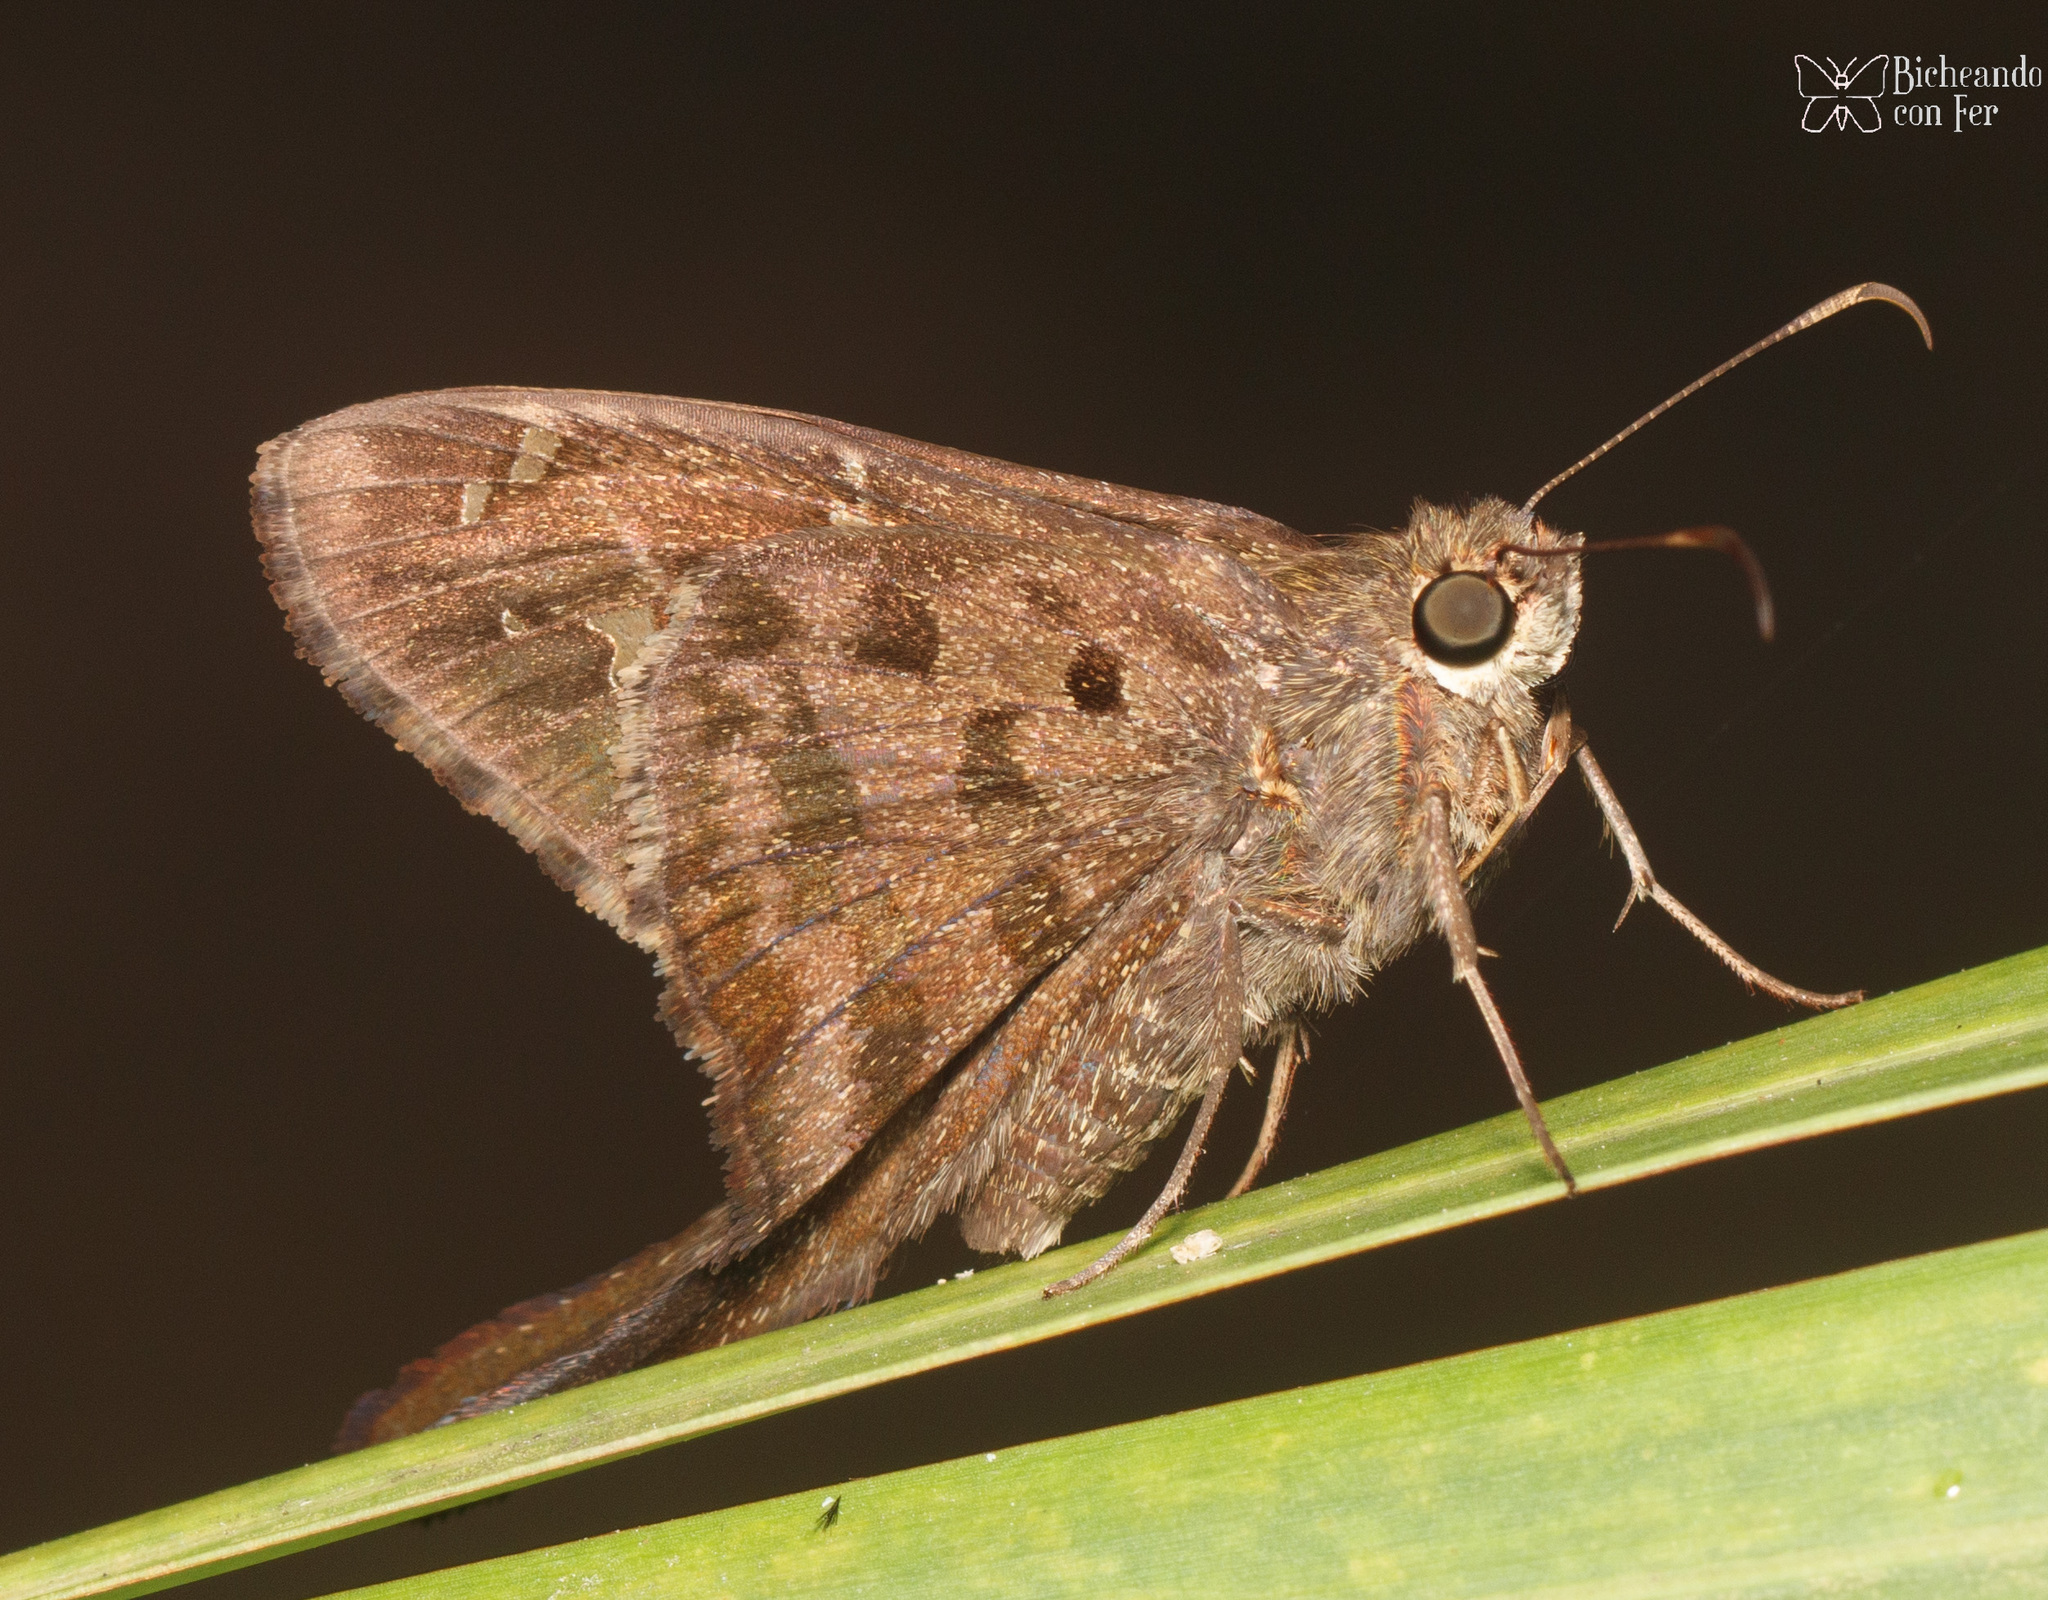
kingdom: Animalia
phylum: Arthropoda
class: Insecta
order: Lepidoptera
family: Hesperiidae
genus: Thorybes
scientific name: Thorybes
